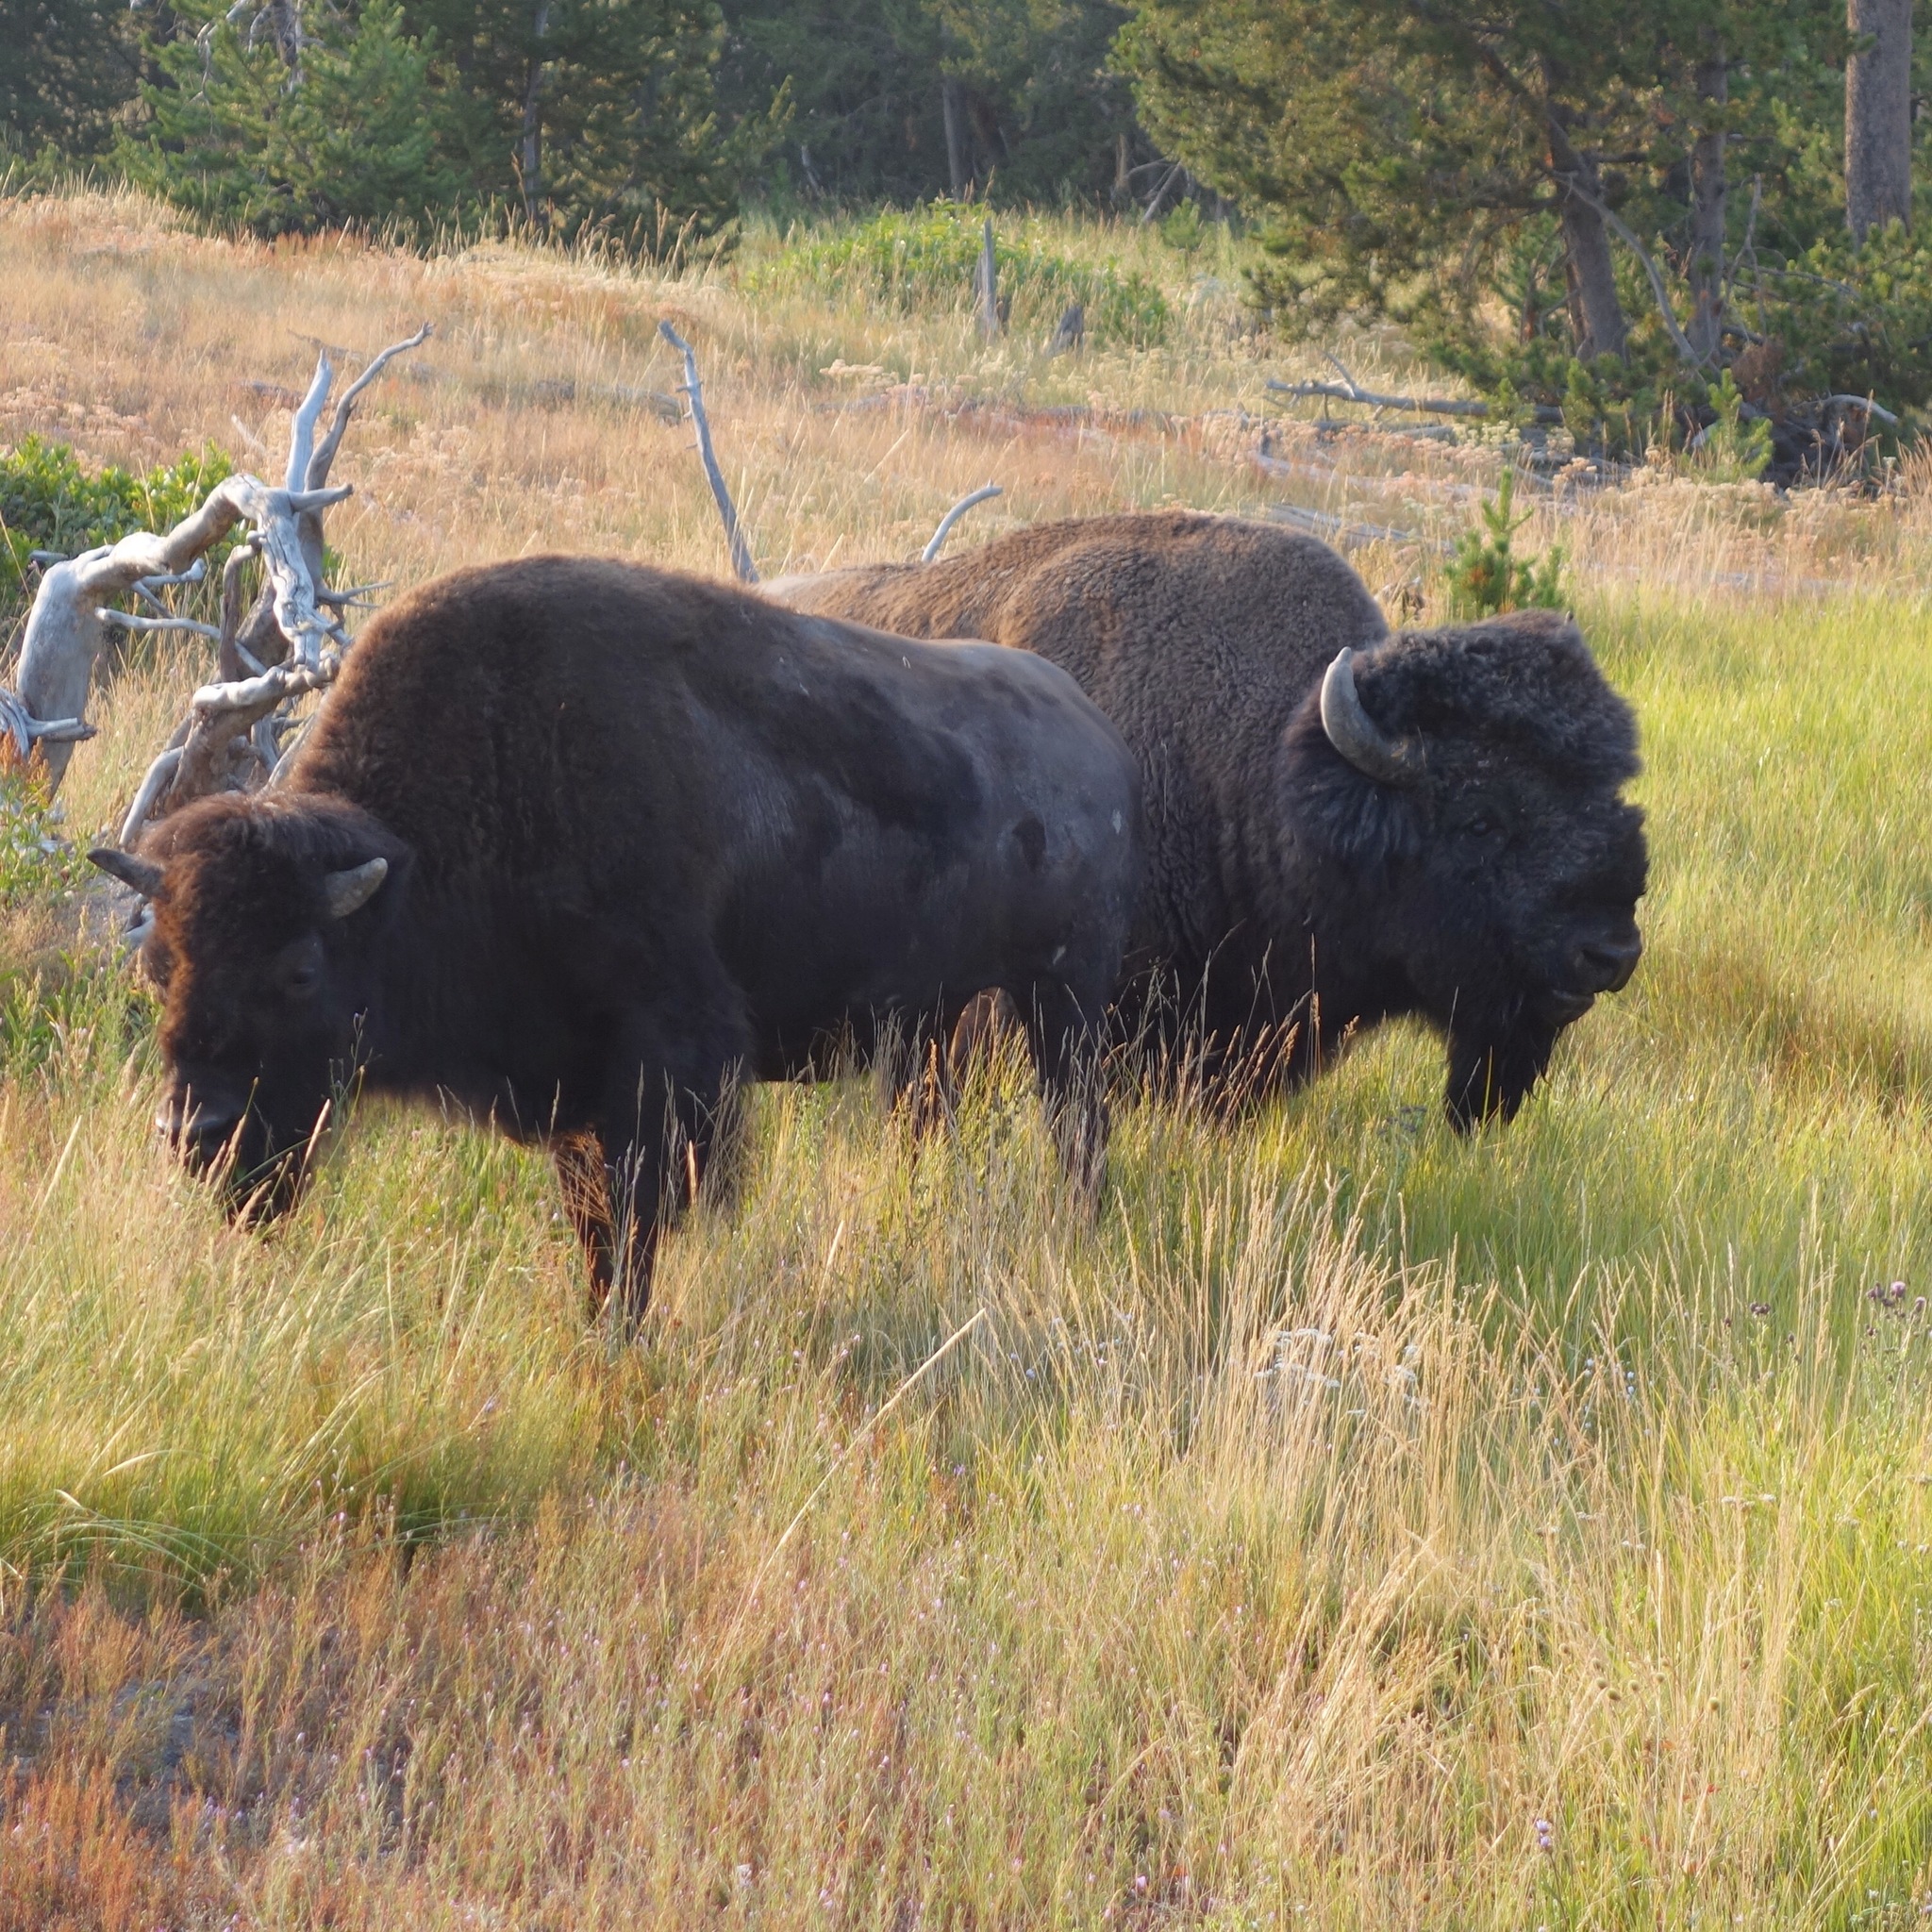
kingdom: Animalia
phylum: Chordata
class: Mammalia
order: Artiodactyla
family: Bovidae
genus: Bison
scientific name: Bison bison
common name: American bison
